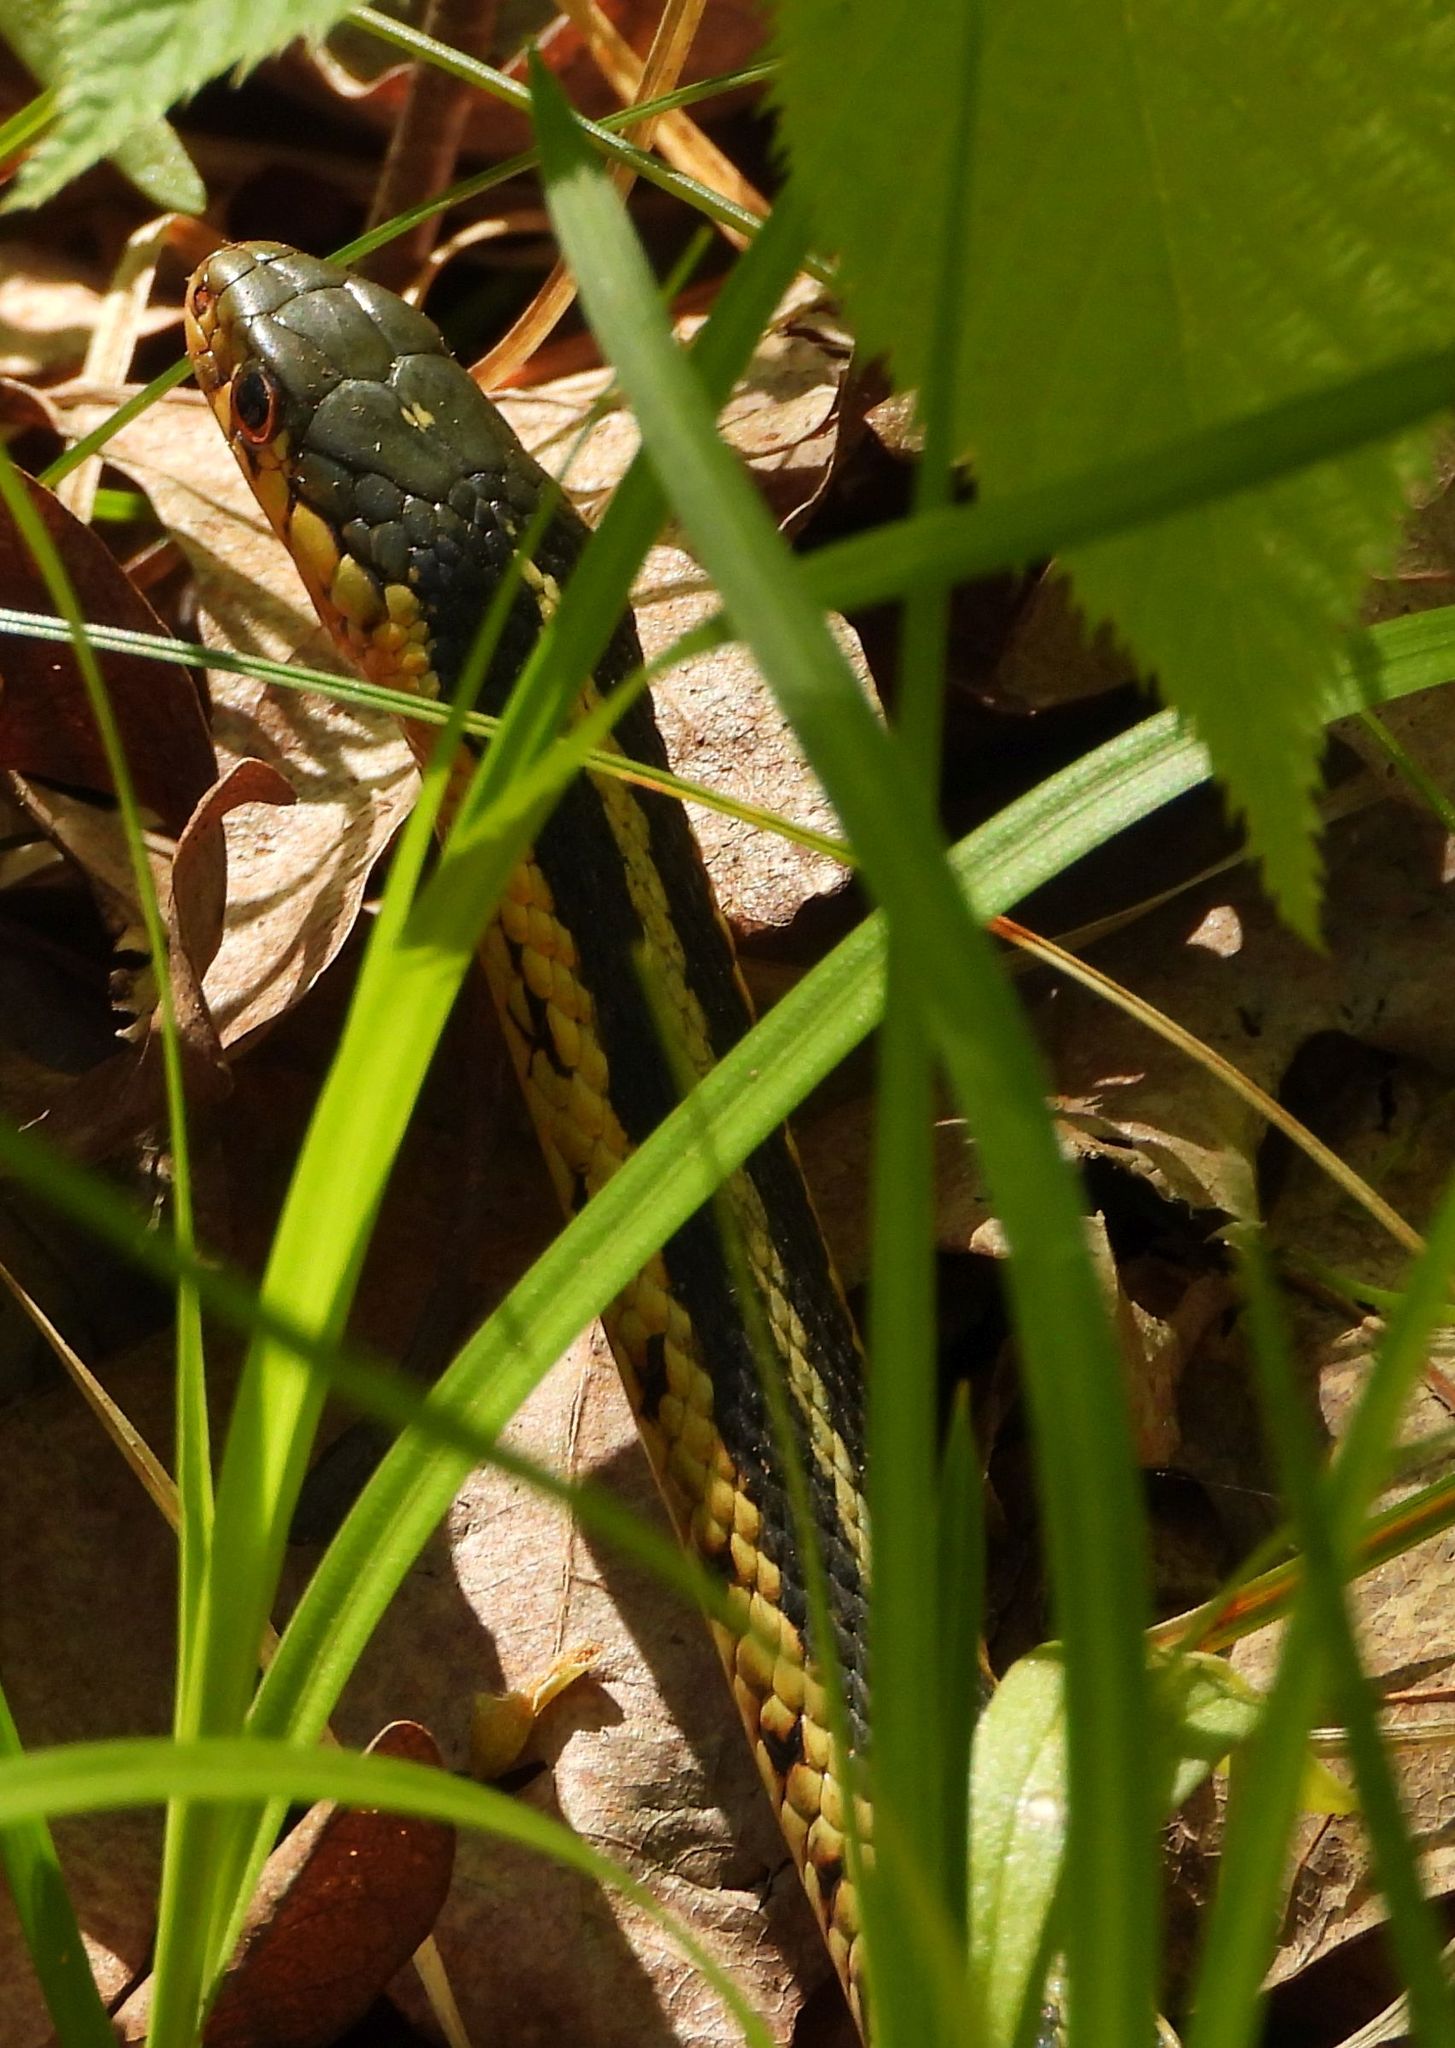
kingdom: Animalia
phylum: Chordata
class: Squamata
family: Colubridae
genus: Thamnophis
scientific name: Thamnophis sirtalis
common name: Common garter snake
